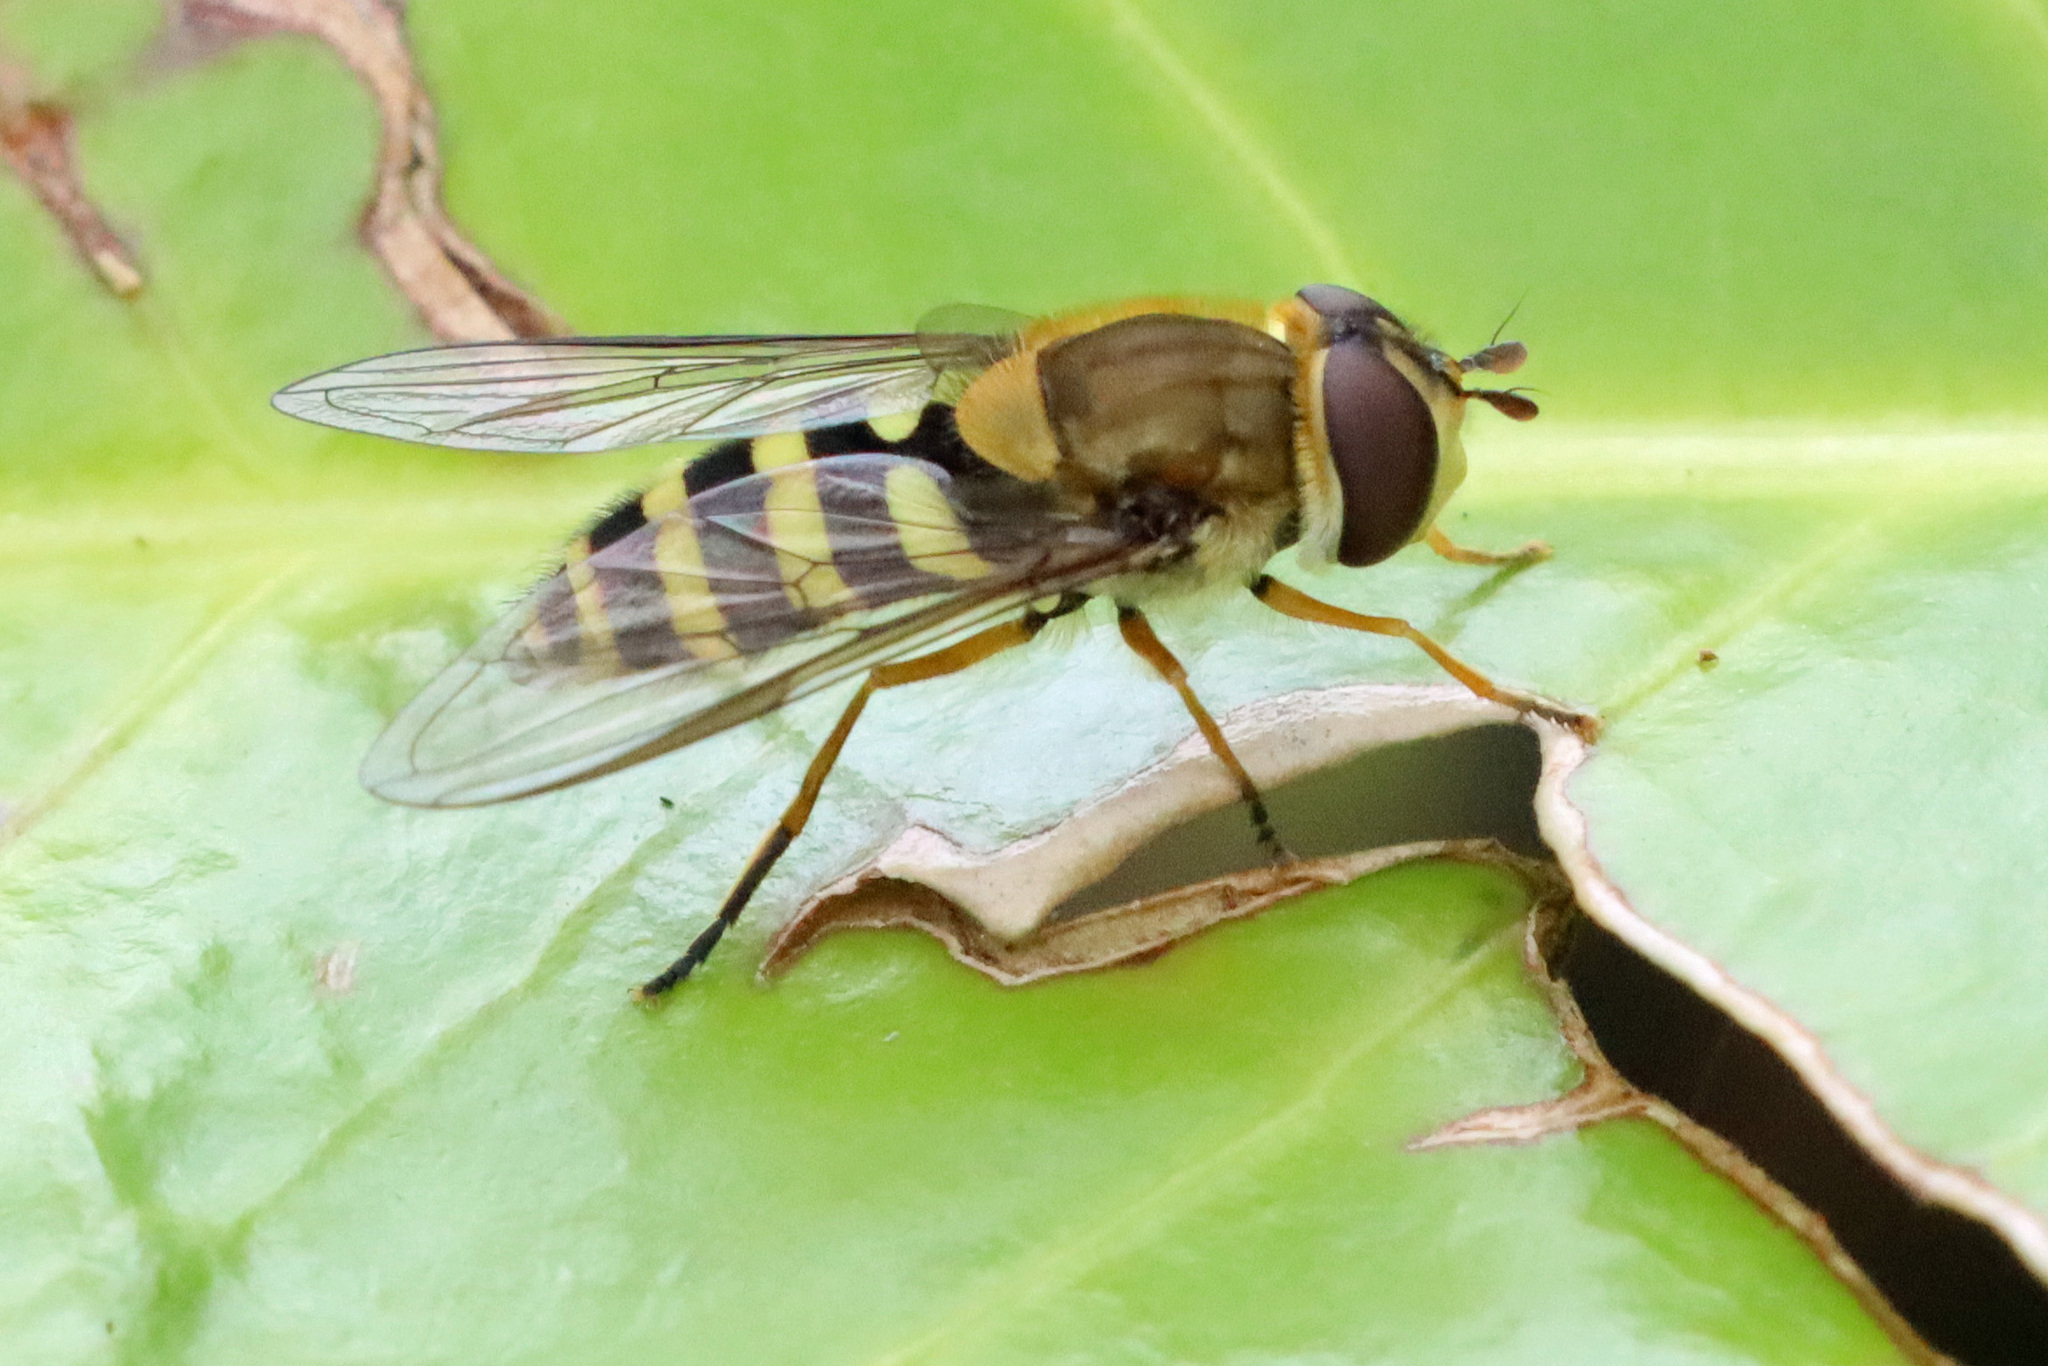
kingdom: Animalia
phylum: Arthropoda
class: Insecta
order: Diptera
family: Syrphidae
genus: Syrphus
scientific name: Syrphus ribesii
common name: Common flower fly
